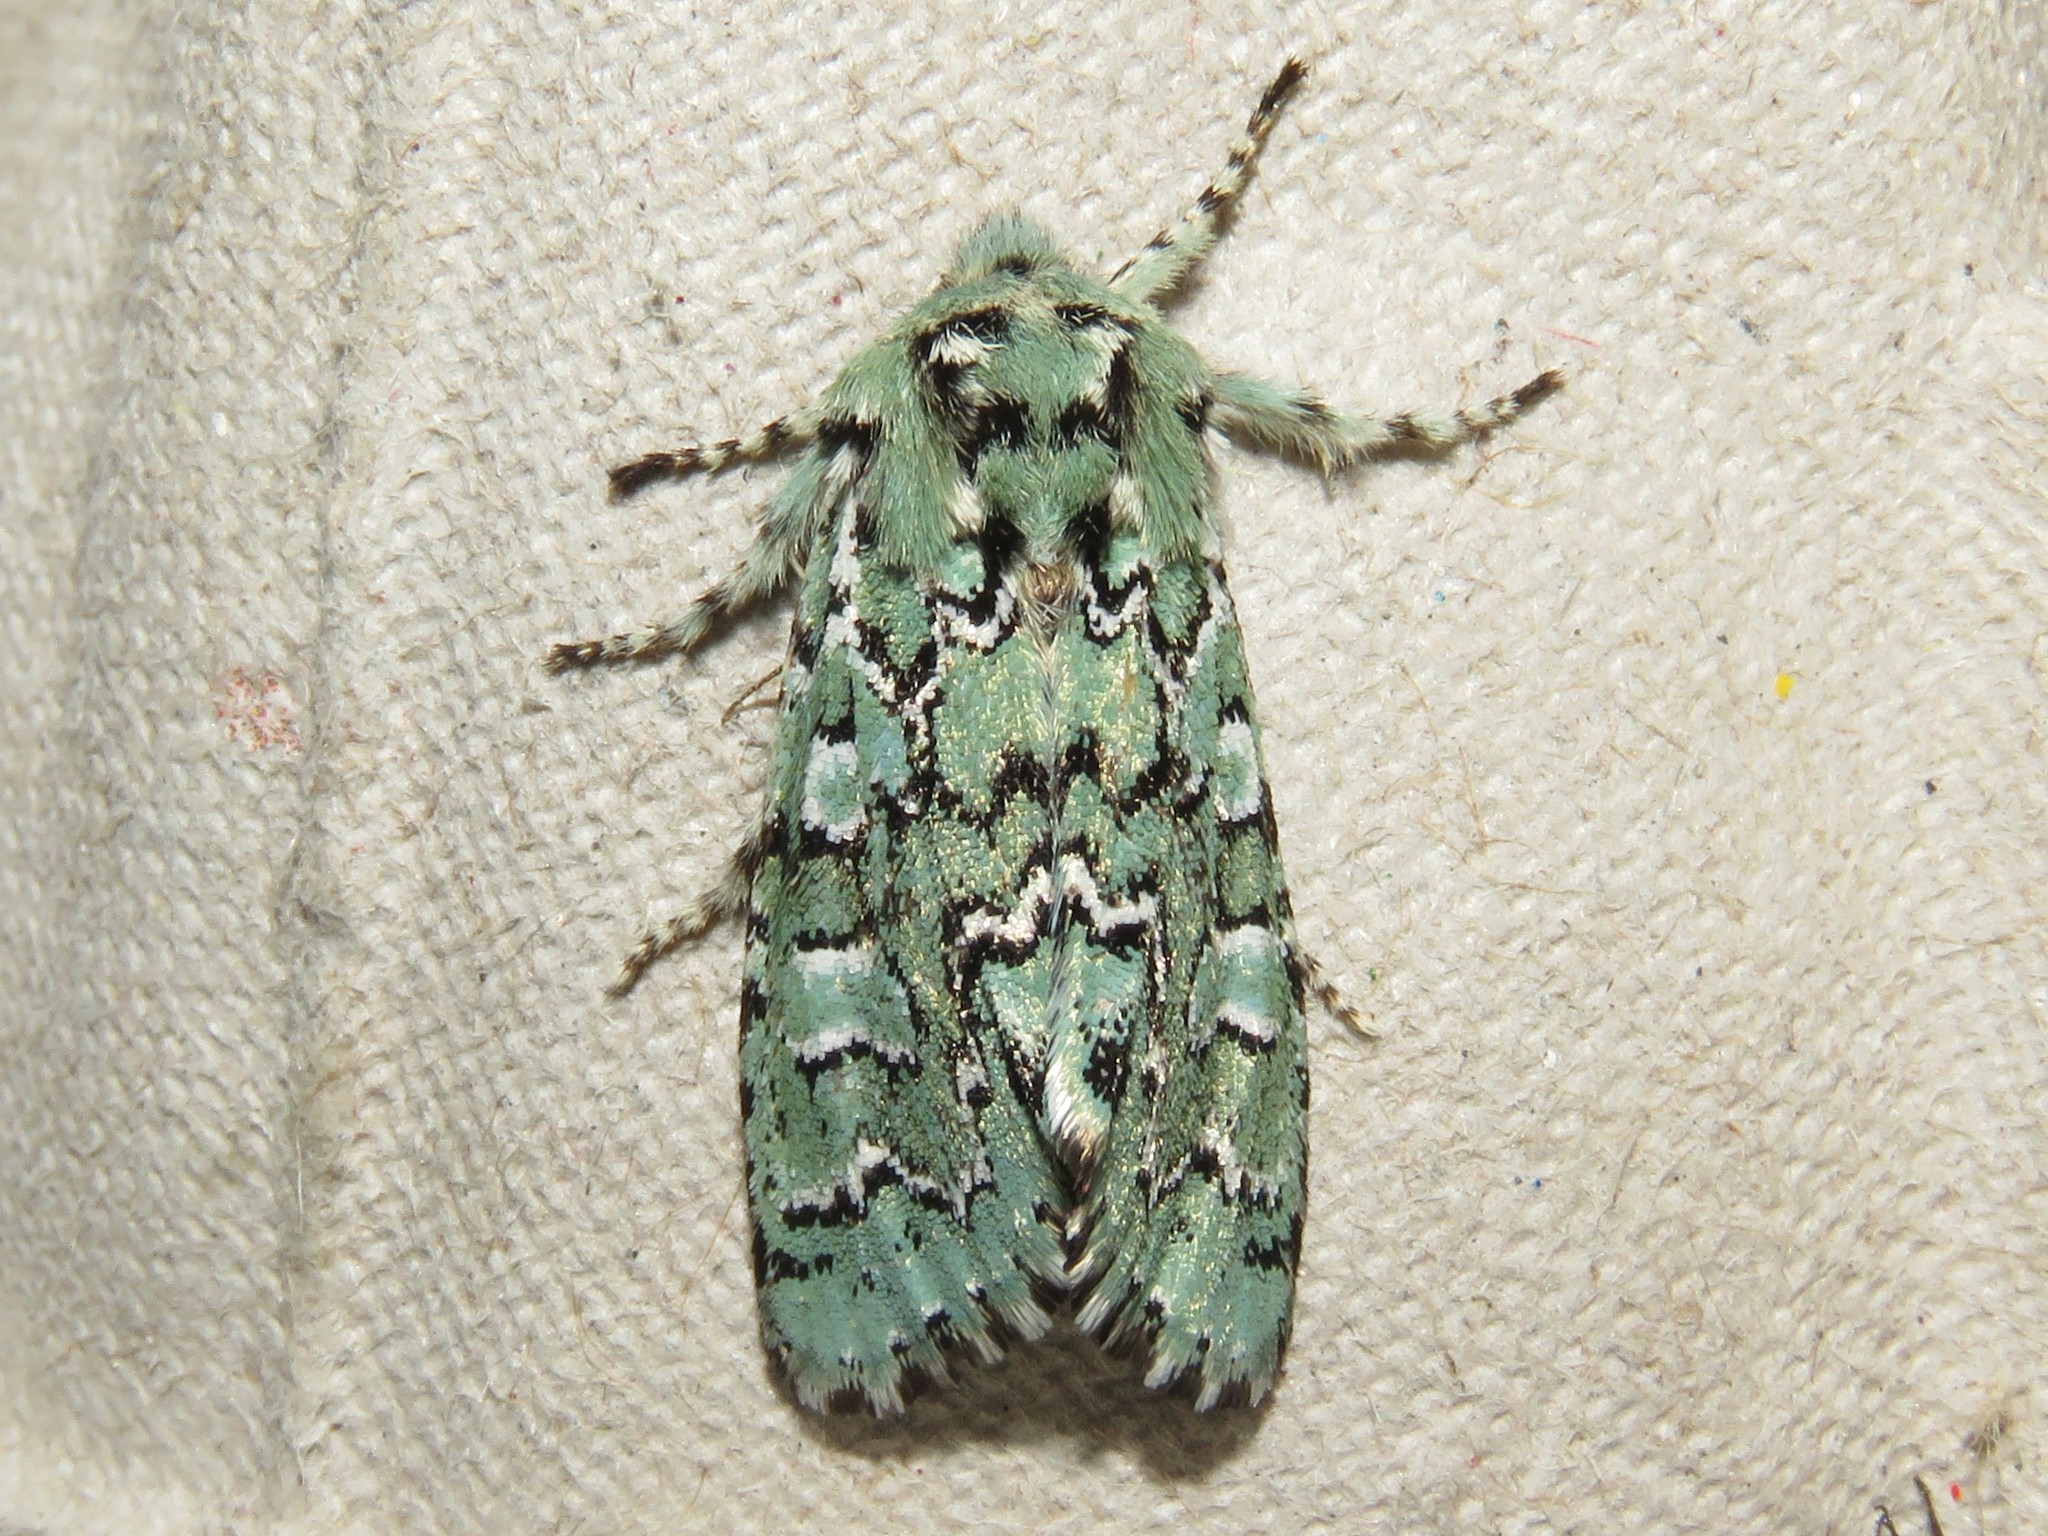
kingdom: Animalia
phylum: Arthropoda
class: Insecta
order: Lepidoptera
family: Noctuidae
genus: Feralia
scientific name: Feralia jocosa
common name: Joker
